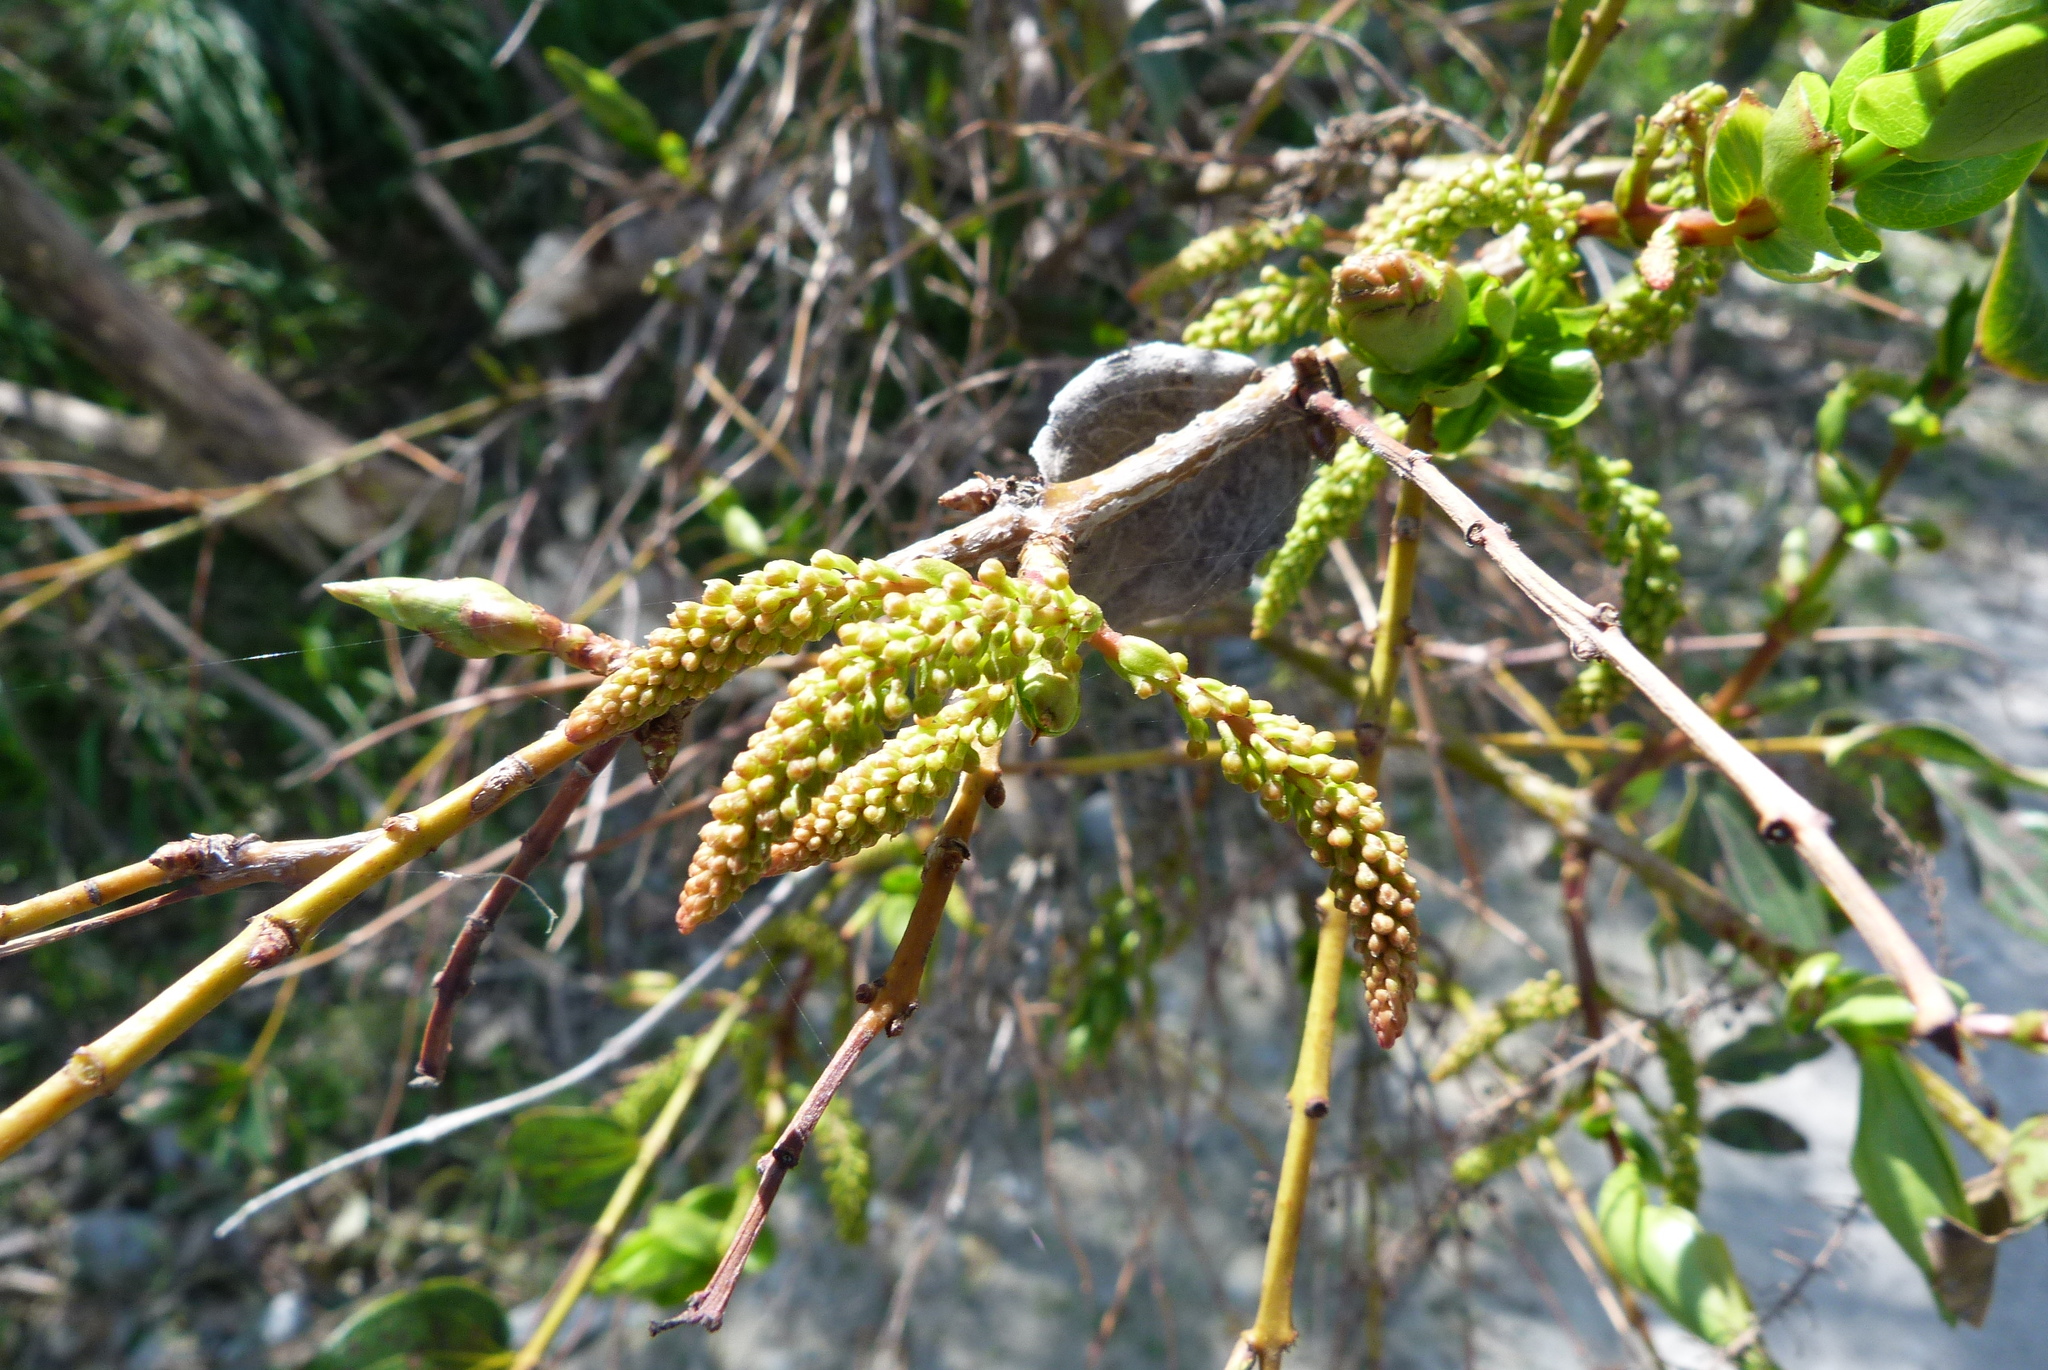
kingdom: Plantae
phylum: Tracheophyta
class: Magnoliopsida
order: Cucurbitales
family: Coriariaceae
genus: Coriaria
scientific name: Coriaria arborea
